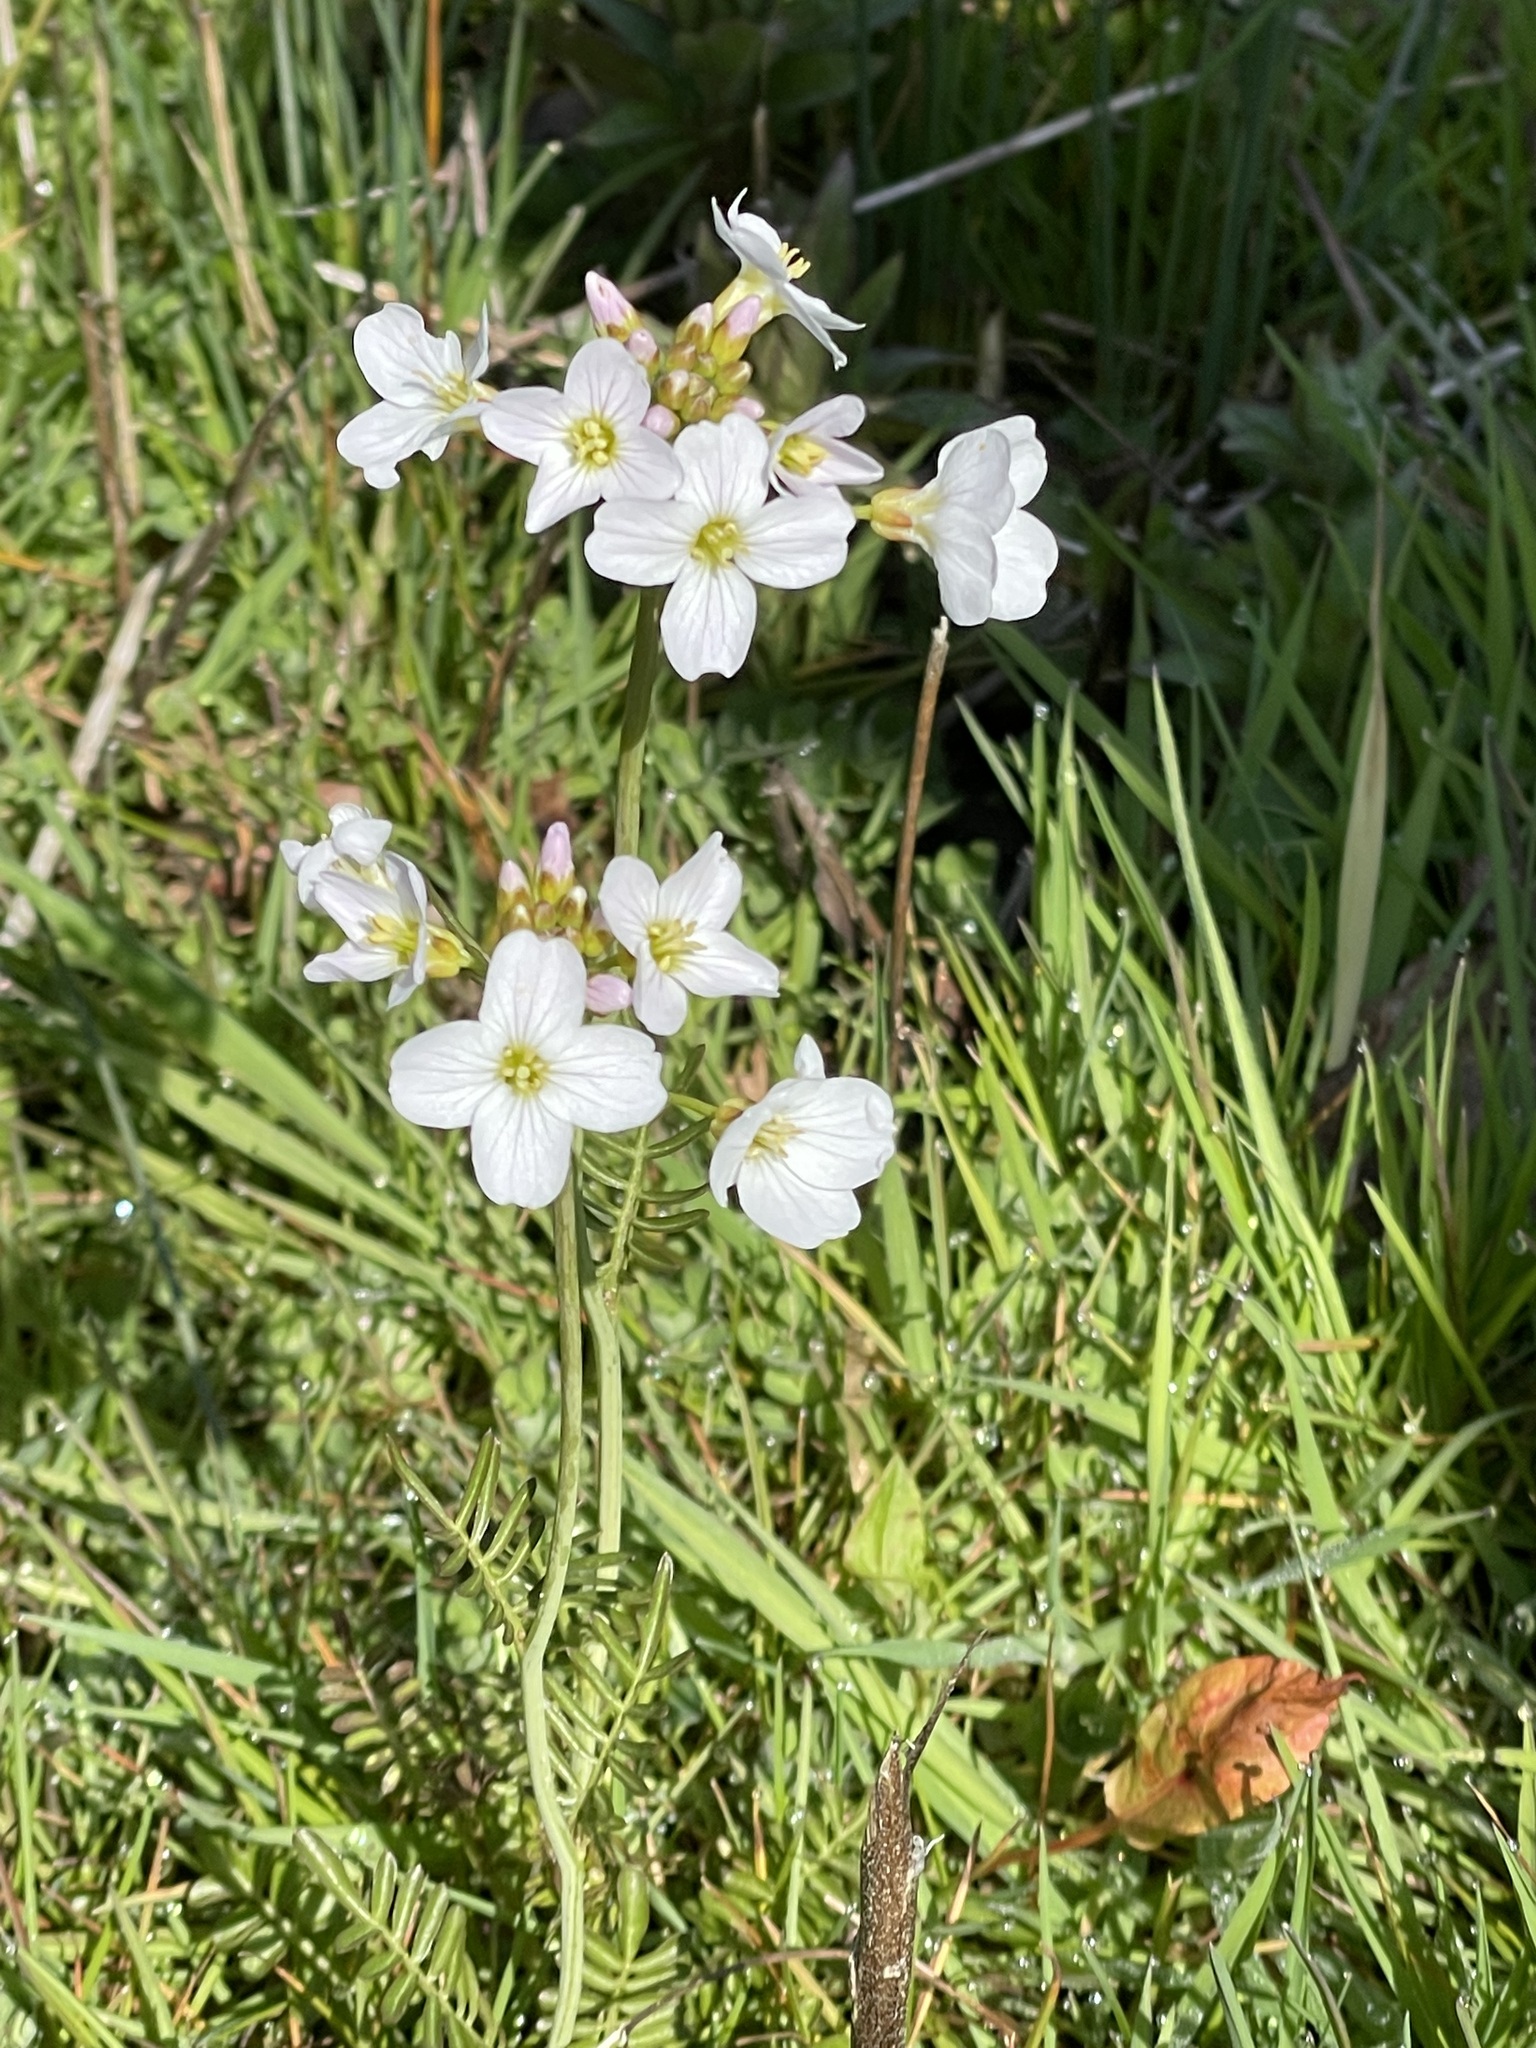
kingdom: Plantae
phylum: Tracheophyta
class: Magnoliopsida
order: Brassicales
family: Brassicaceae
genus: Cardamine
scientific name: Cardamine pratensis
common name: Cuckoo flower
